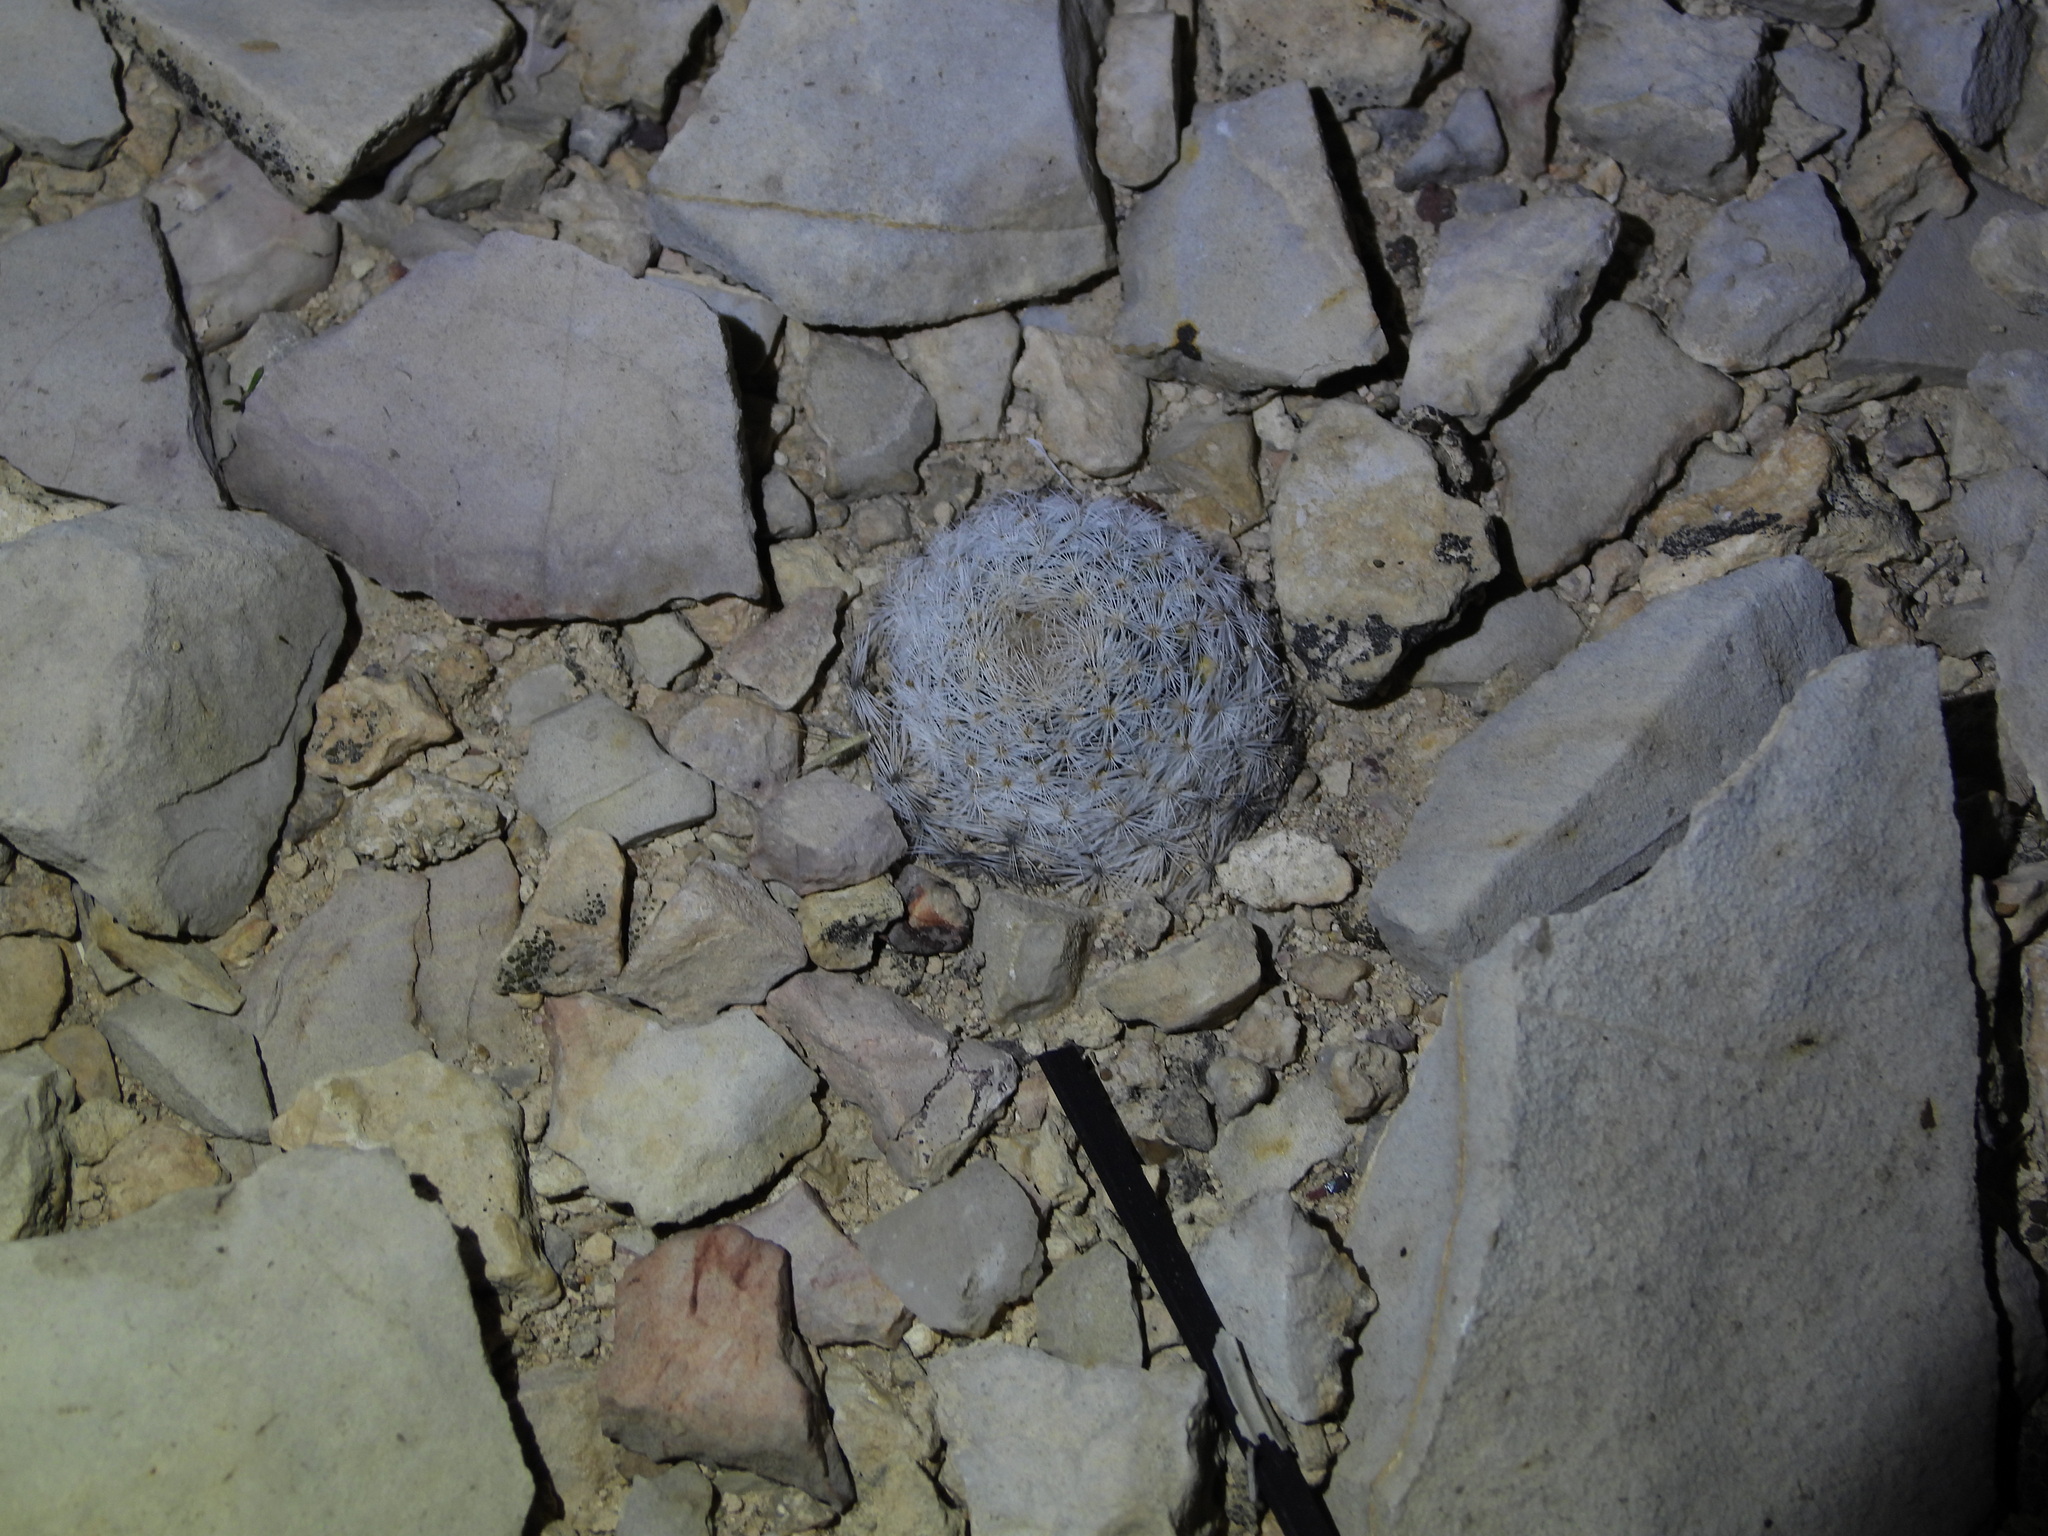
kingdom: Plantae
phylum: Tracheophyta
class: Magnoliopsida
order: Caryophyllales
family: Cactaceae
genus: Mammillaria
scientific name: Mammillaria lasiacantha
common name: Lace-spine nipple cactus
